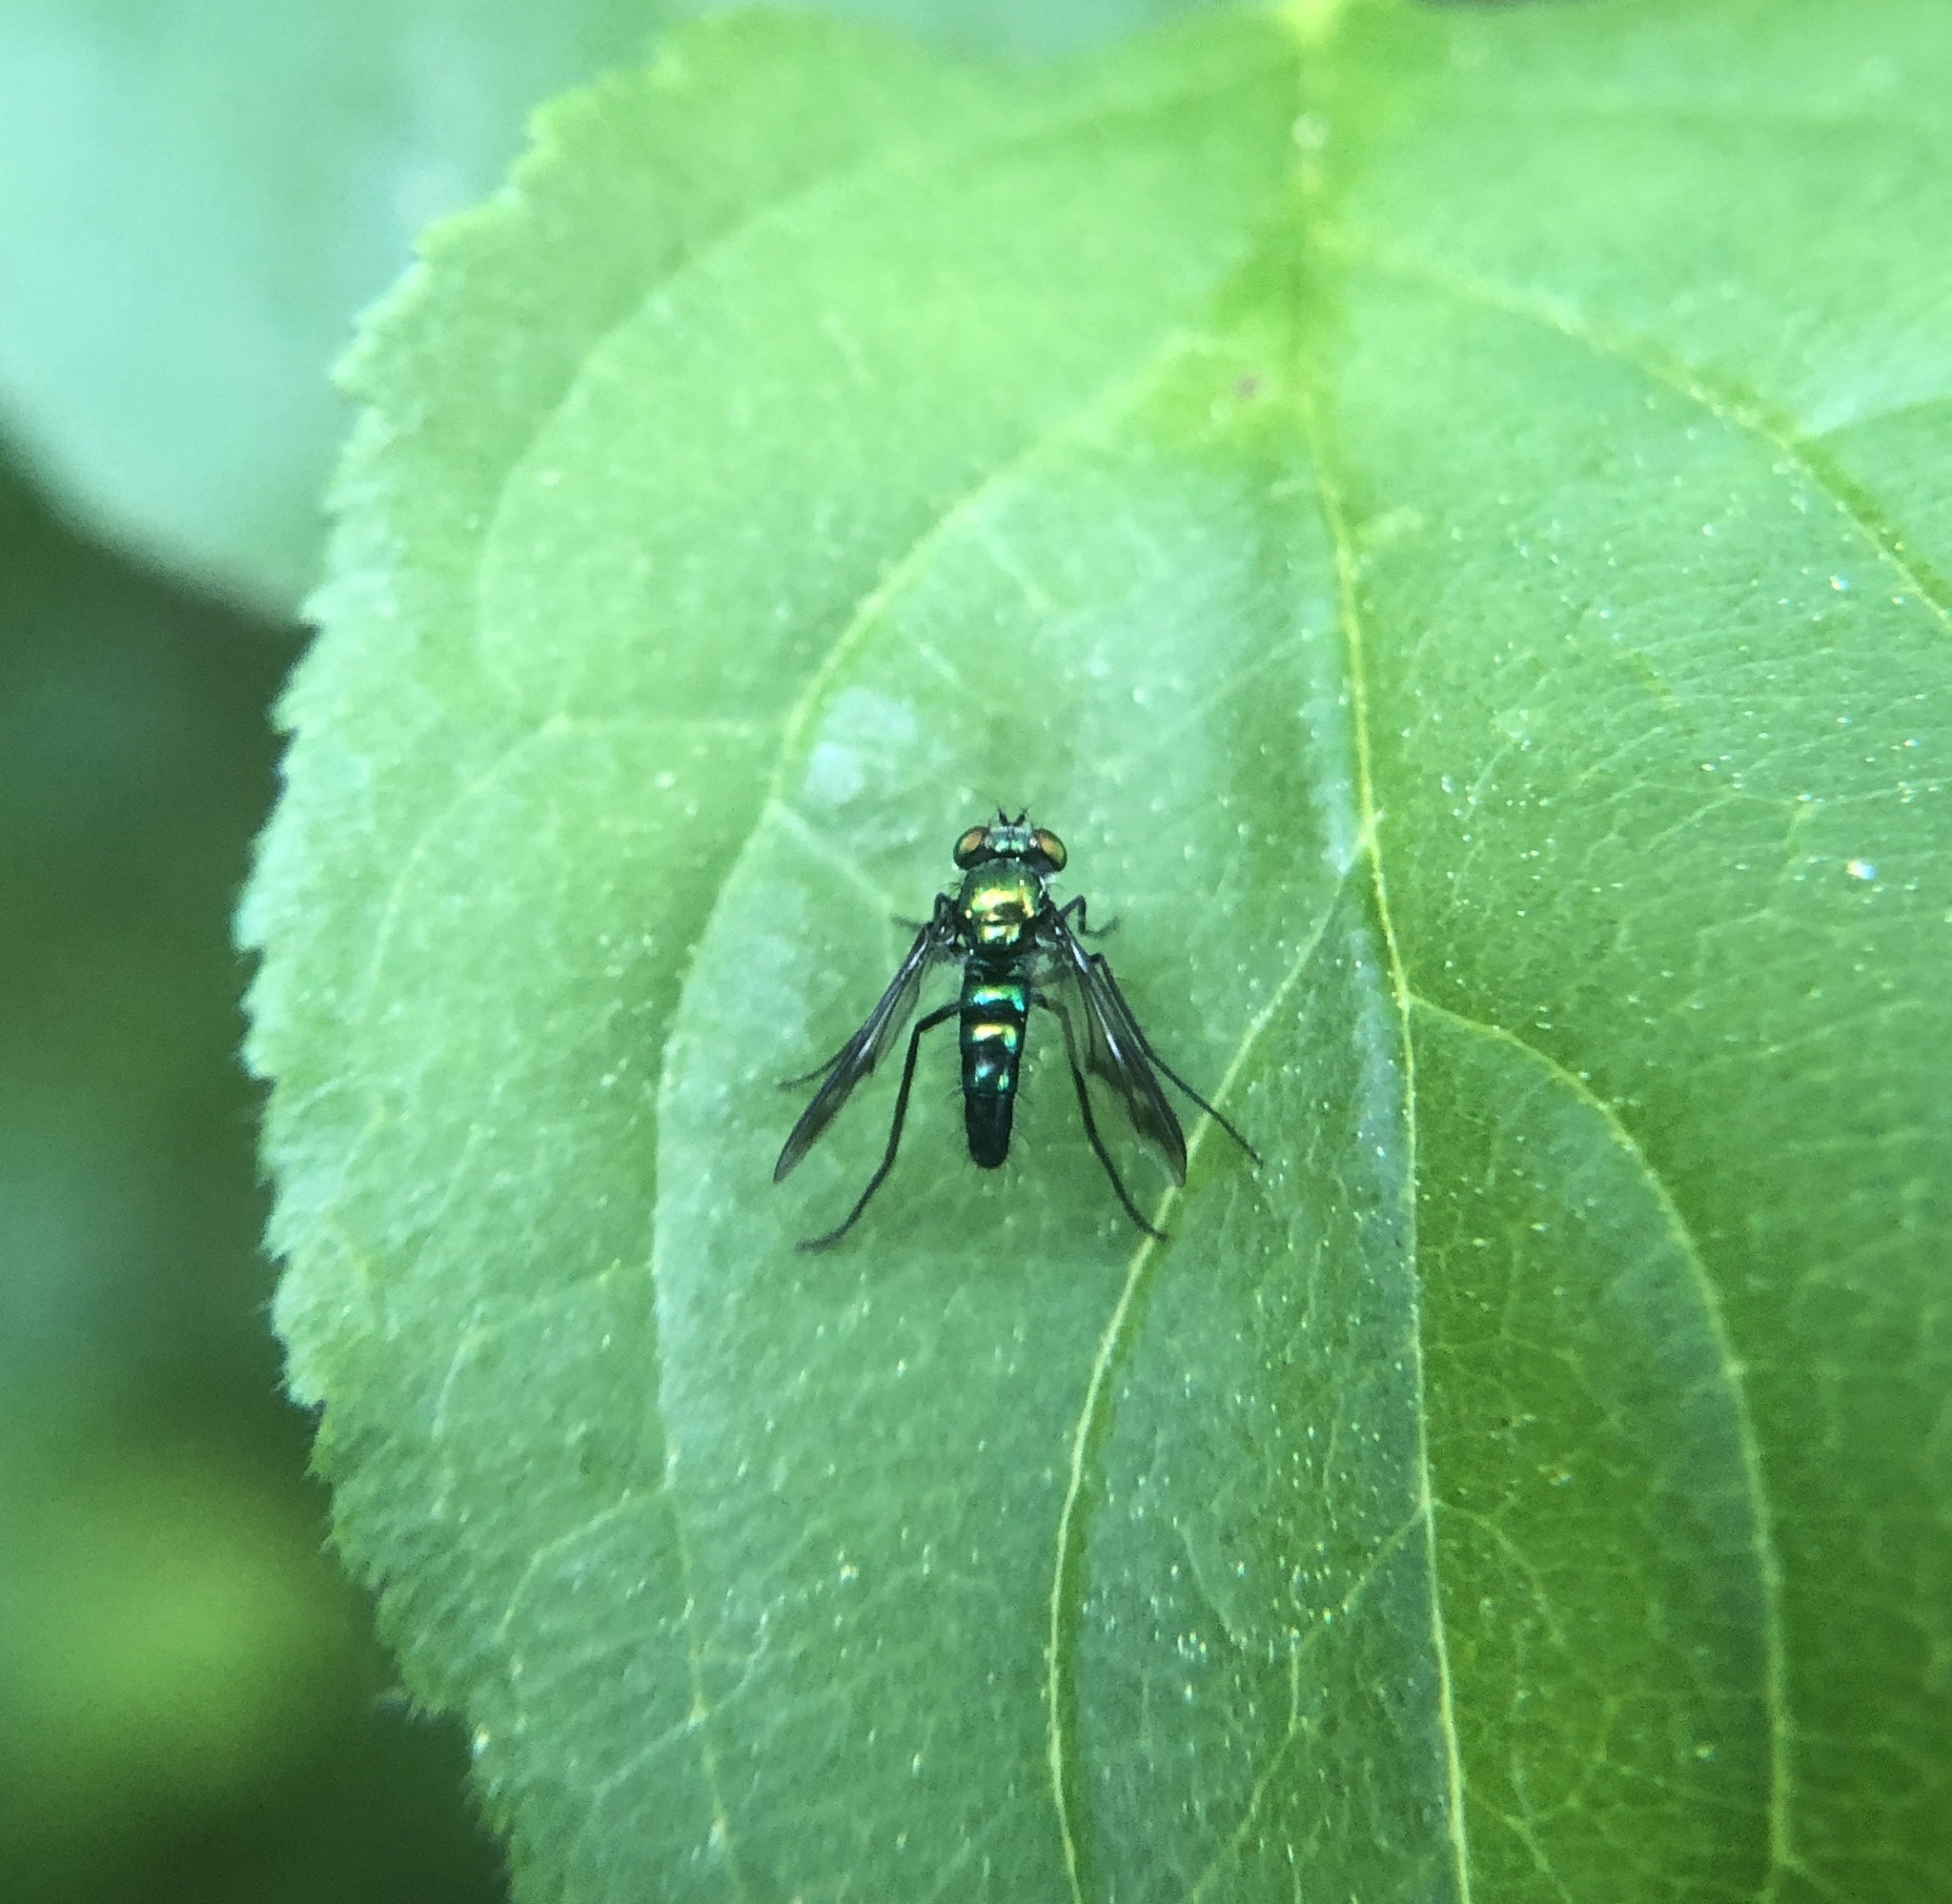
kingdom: Animalia
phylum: Arthropoda
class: Insecta
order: Diptera
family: Dolichopodidae
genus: Condylostylus
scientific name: Condylostylus patibulatus
